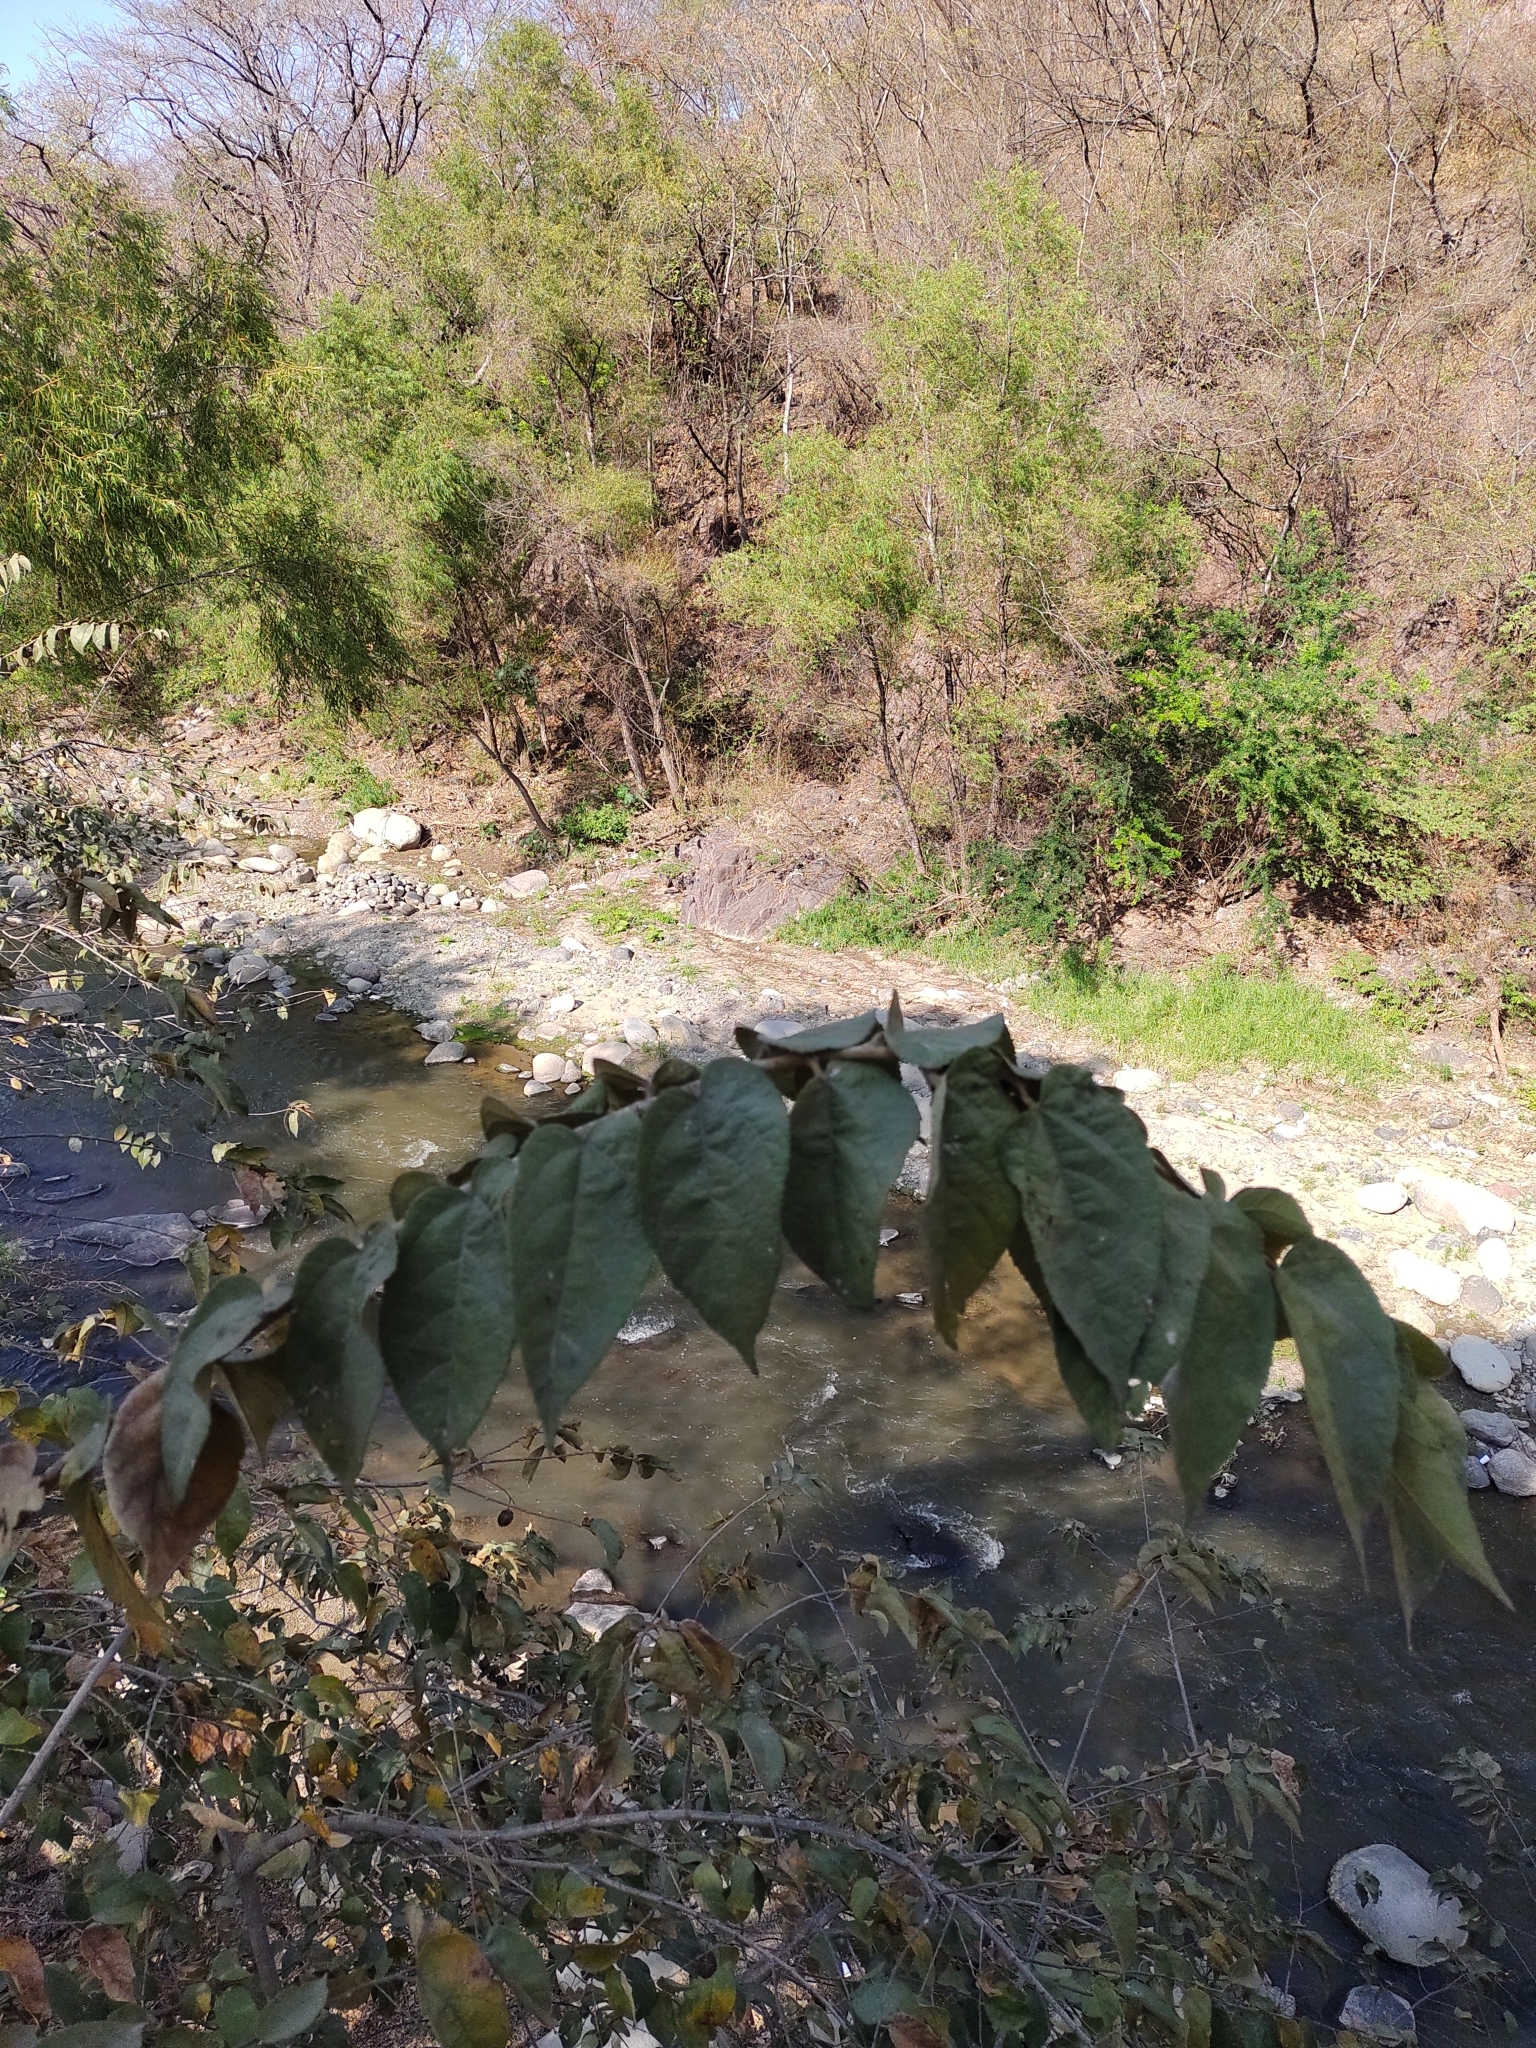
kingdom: Plantae
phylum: Tracheophyta
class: Magnoliopsida
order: Malvales
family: Malvaceae
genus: Guazuma
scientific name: Guazuma ulmifolia
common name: Bastard-cedar
